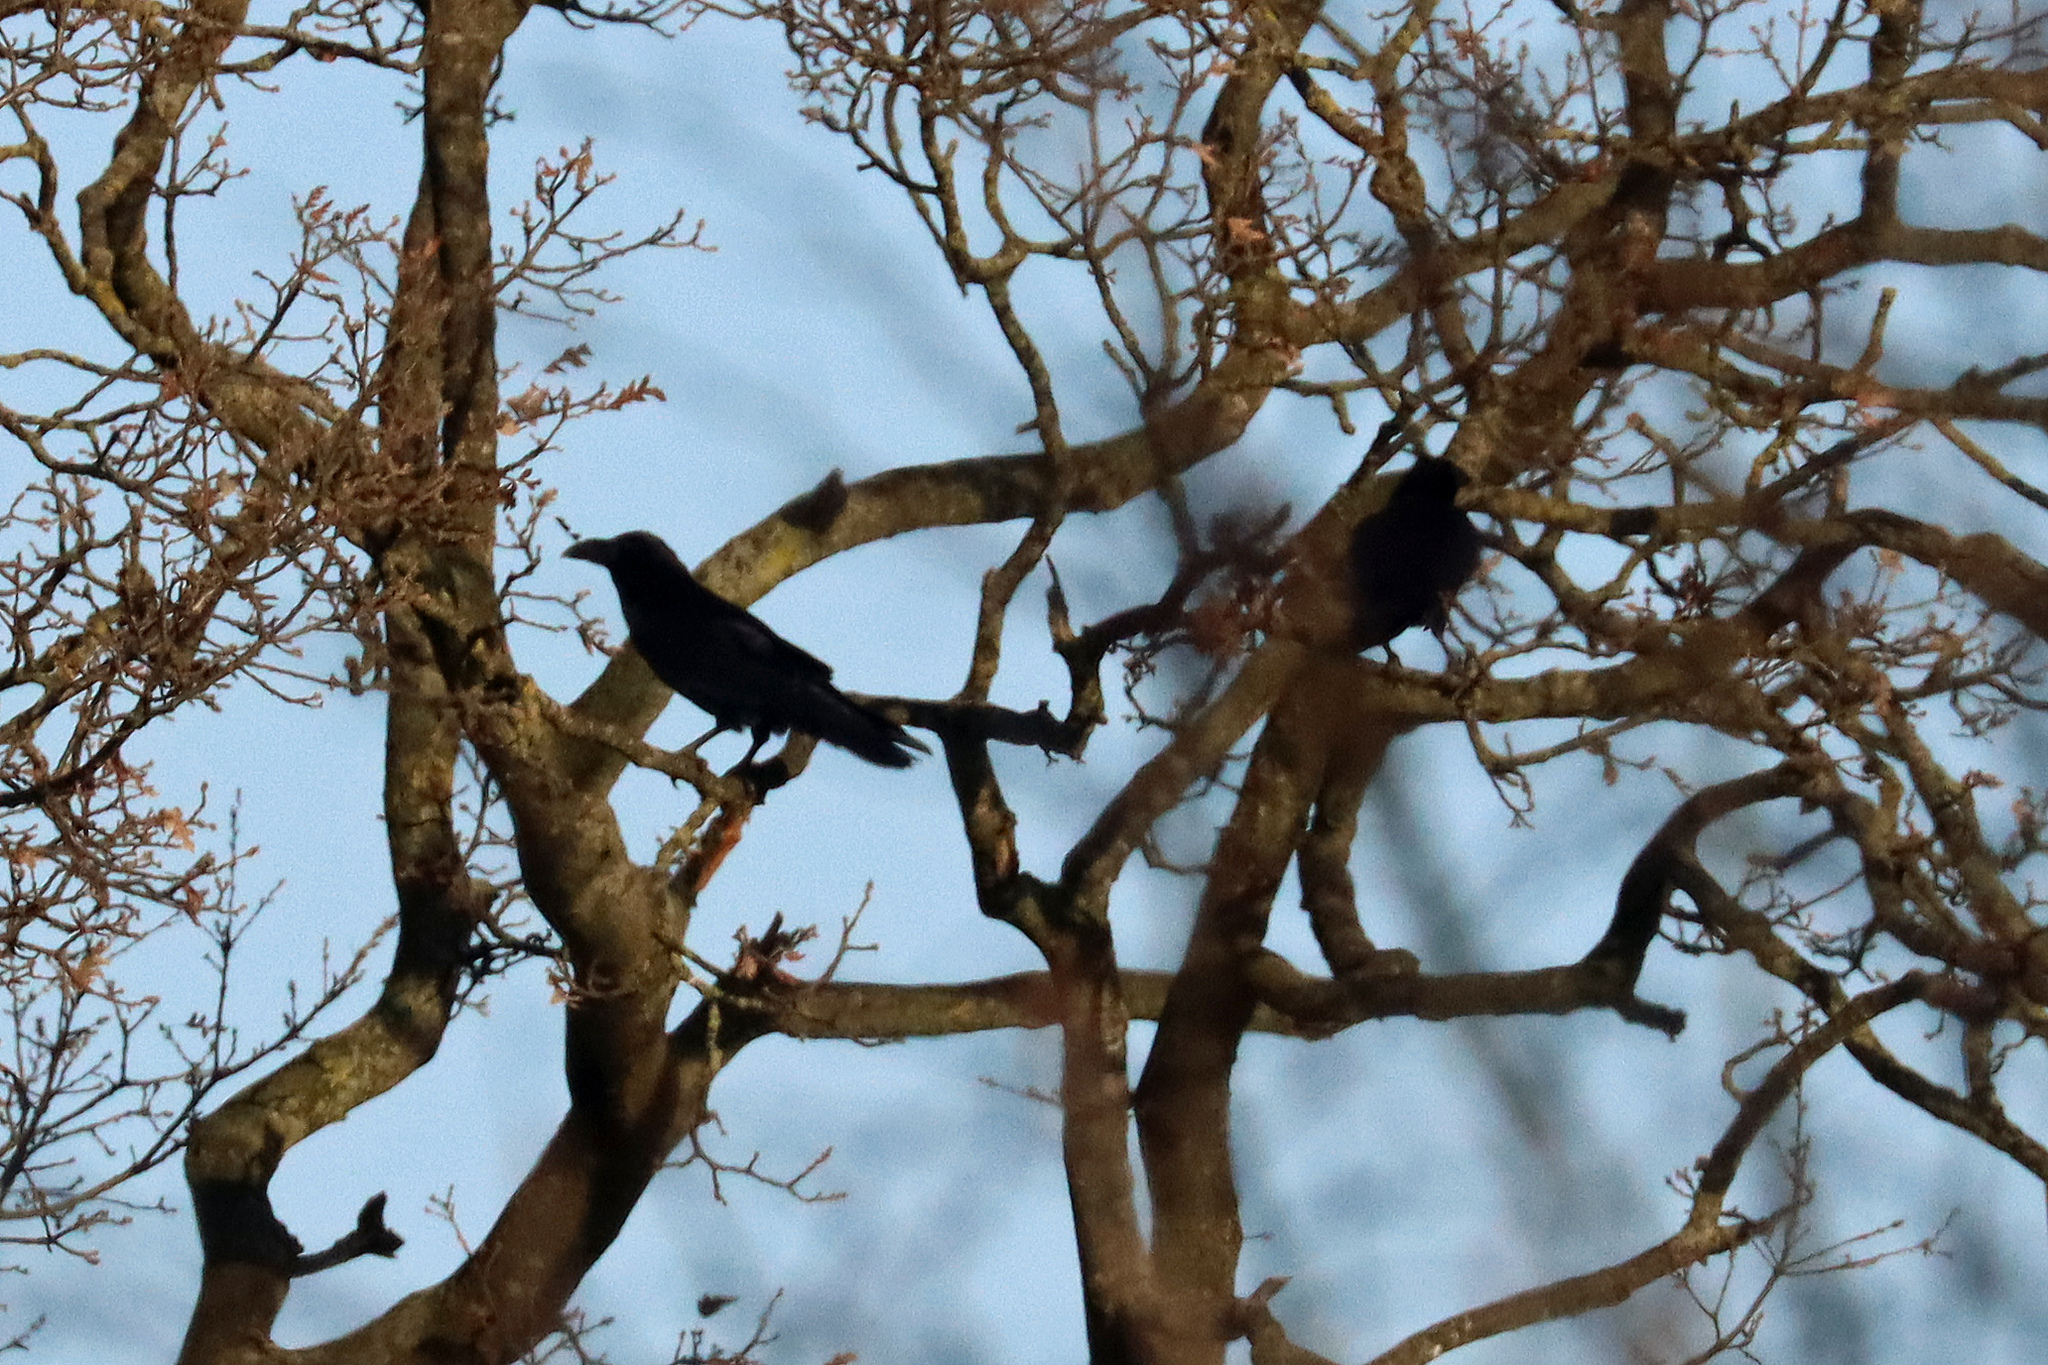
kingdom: Animalia
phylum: Chordata
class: Aves
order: Passeriformes
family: Corvidae
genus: Corvus
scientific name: Corvus corax
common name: Common raven
